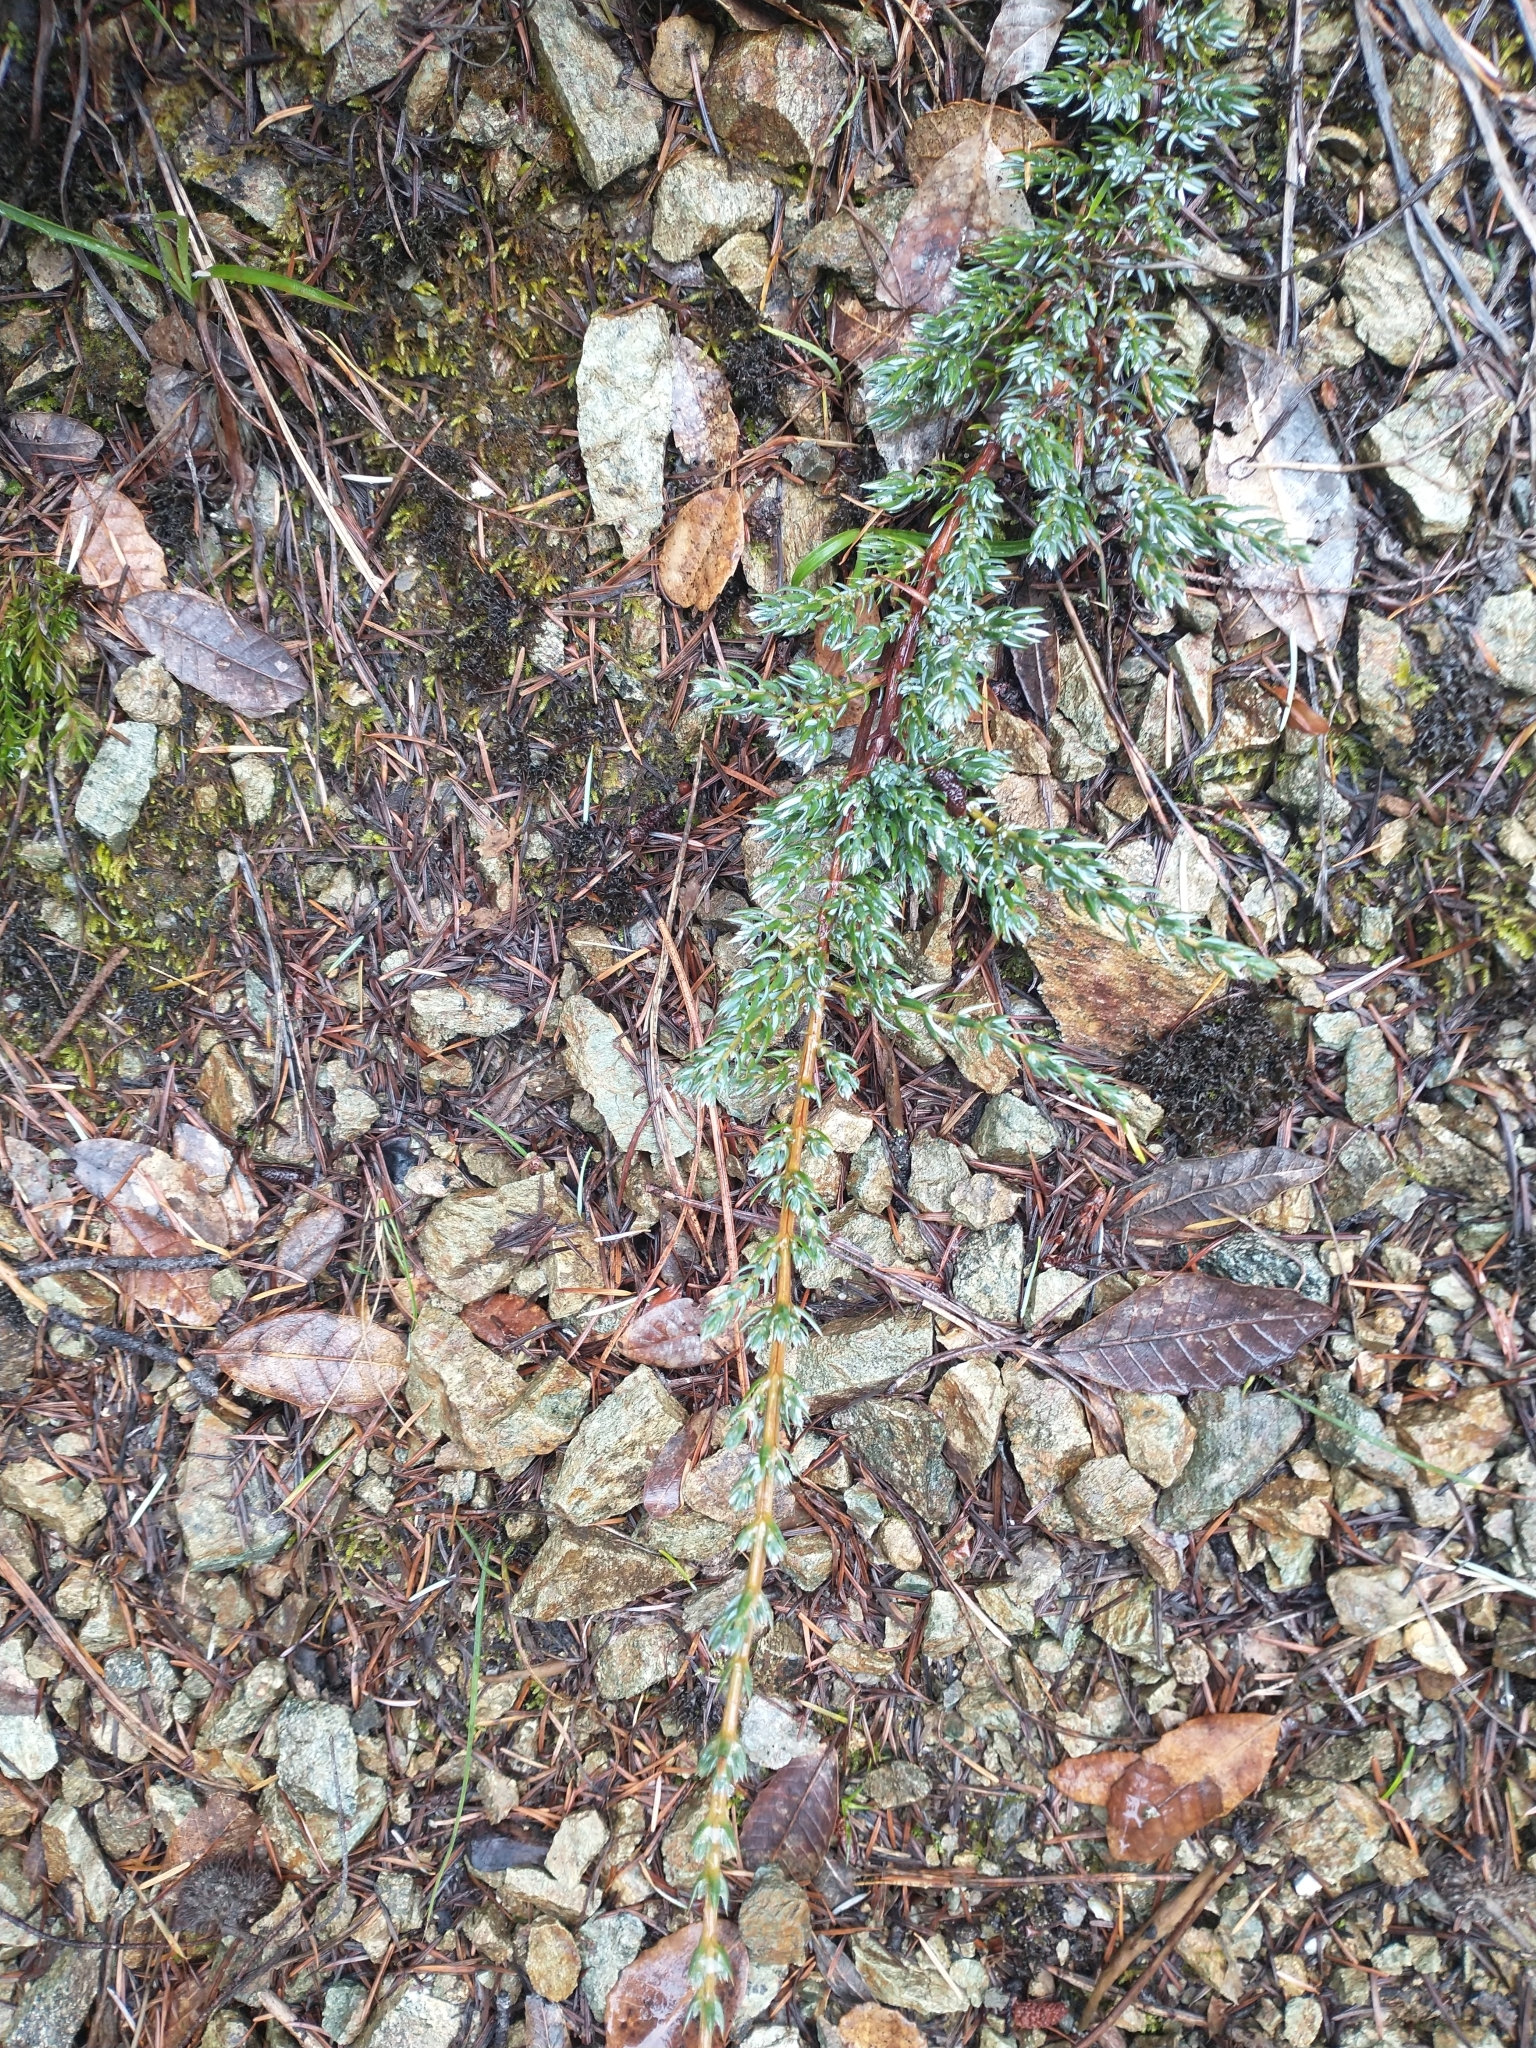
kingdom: Plantae
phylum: Tracheophyta
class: Pinopsida
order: Pinales
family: Cupressaceae
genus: Juniperus
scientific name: Juniperus communis
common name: Common juniper
